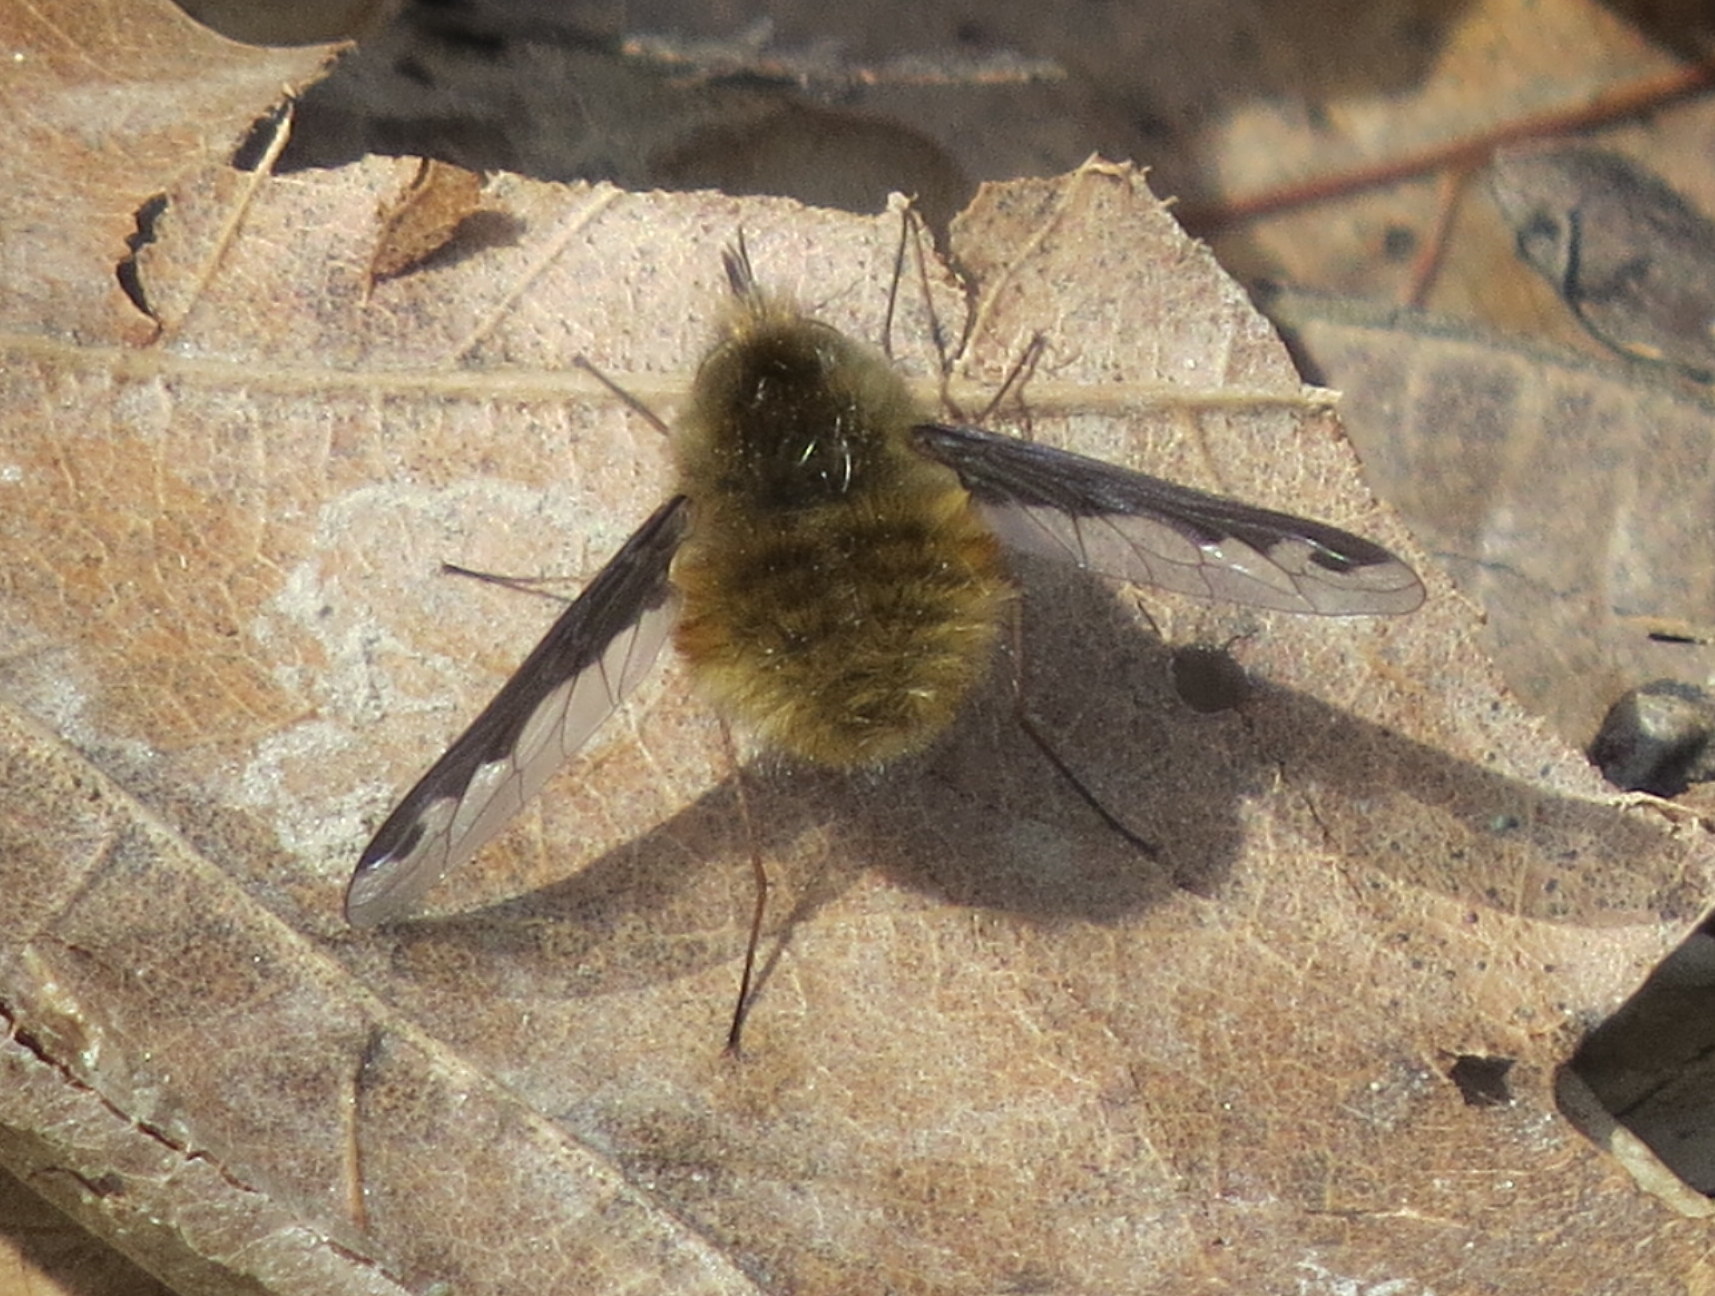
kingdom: Animalia
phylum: Arthropoda
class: Insecta
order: Diptera
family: Bombyliidae
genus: Bombylius
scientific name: Bombylius major
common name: Bee fly
